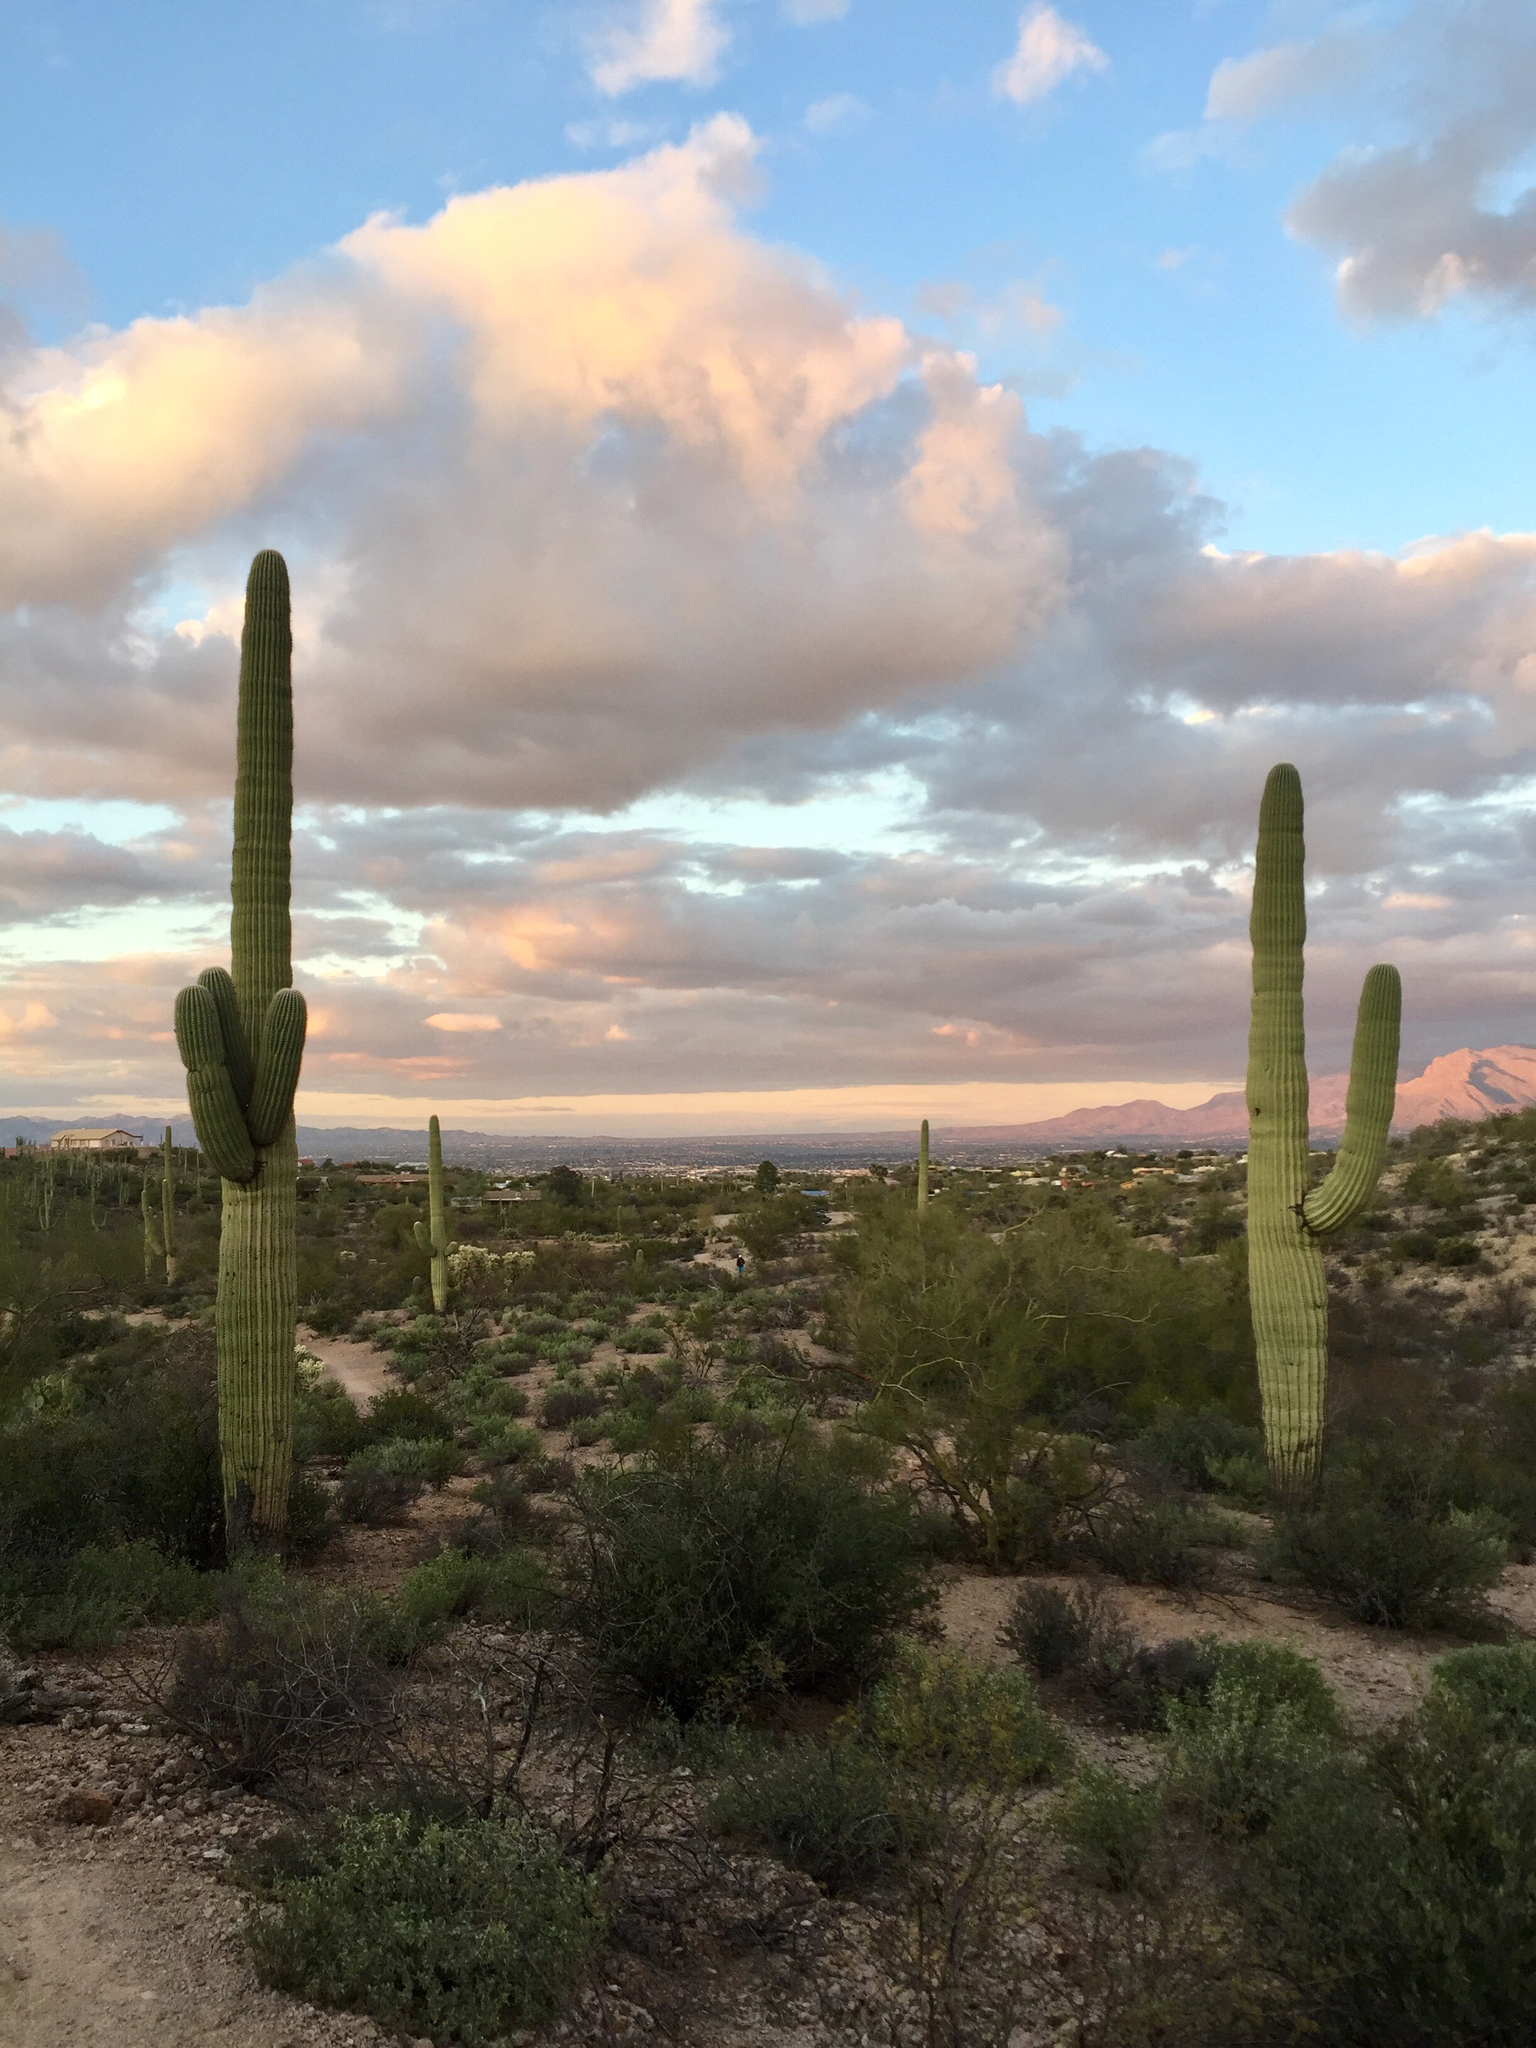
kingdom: Plantae
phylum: Tracheophyta
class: Magnoliopsida
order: Caryophyllales
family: Cactaceae
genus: Carnegiea
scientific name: Carnegiea gigantea
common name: Saguaro
